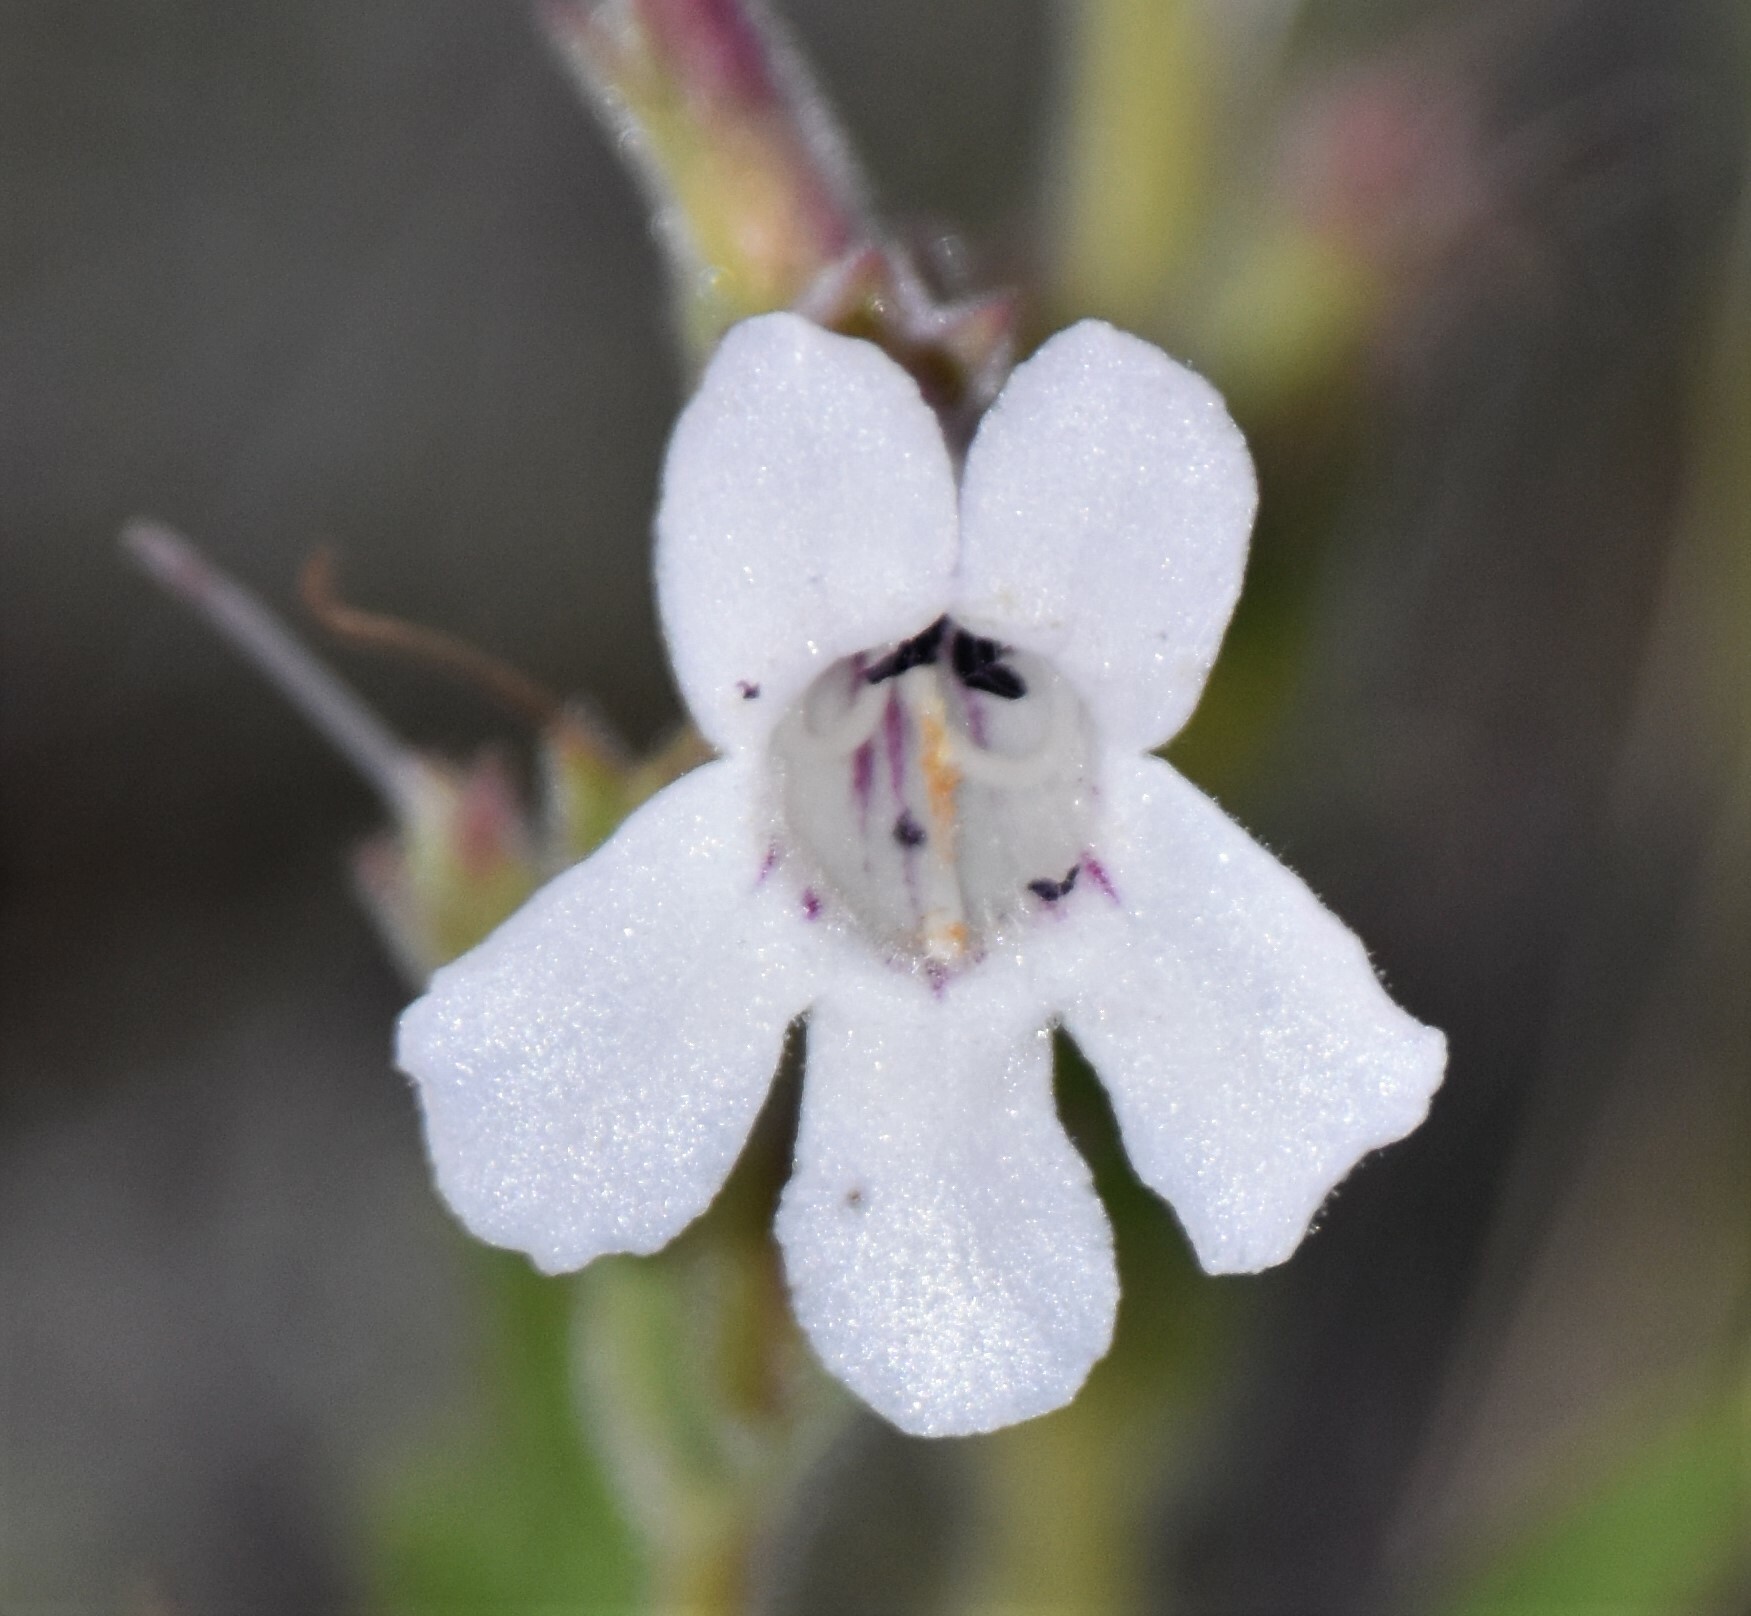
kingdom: Plantae
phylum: Tracheophyta
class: Magnoliopsida
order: Lamiales
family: Plantaginaceae
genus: Penstemon
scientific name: Penstemon albidus
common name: White beardtongue
